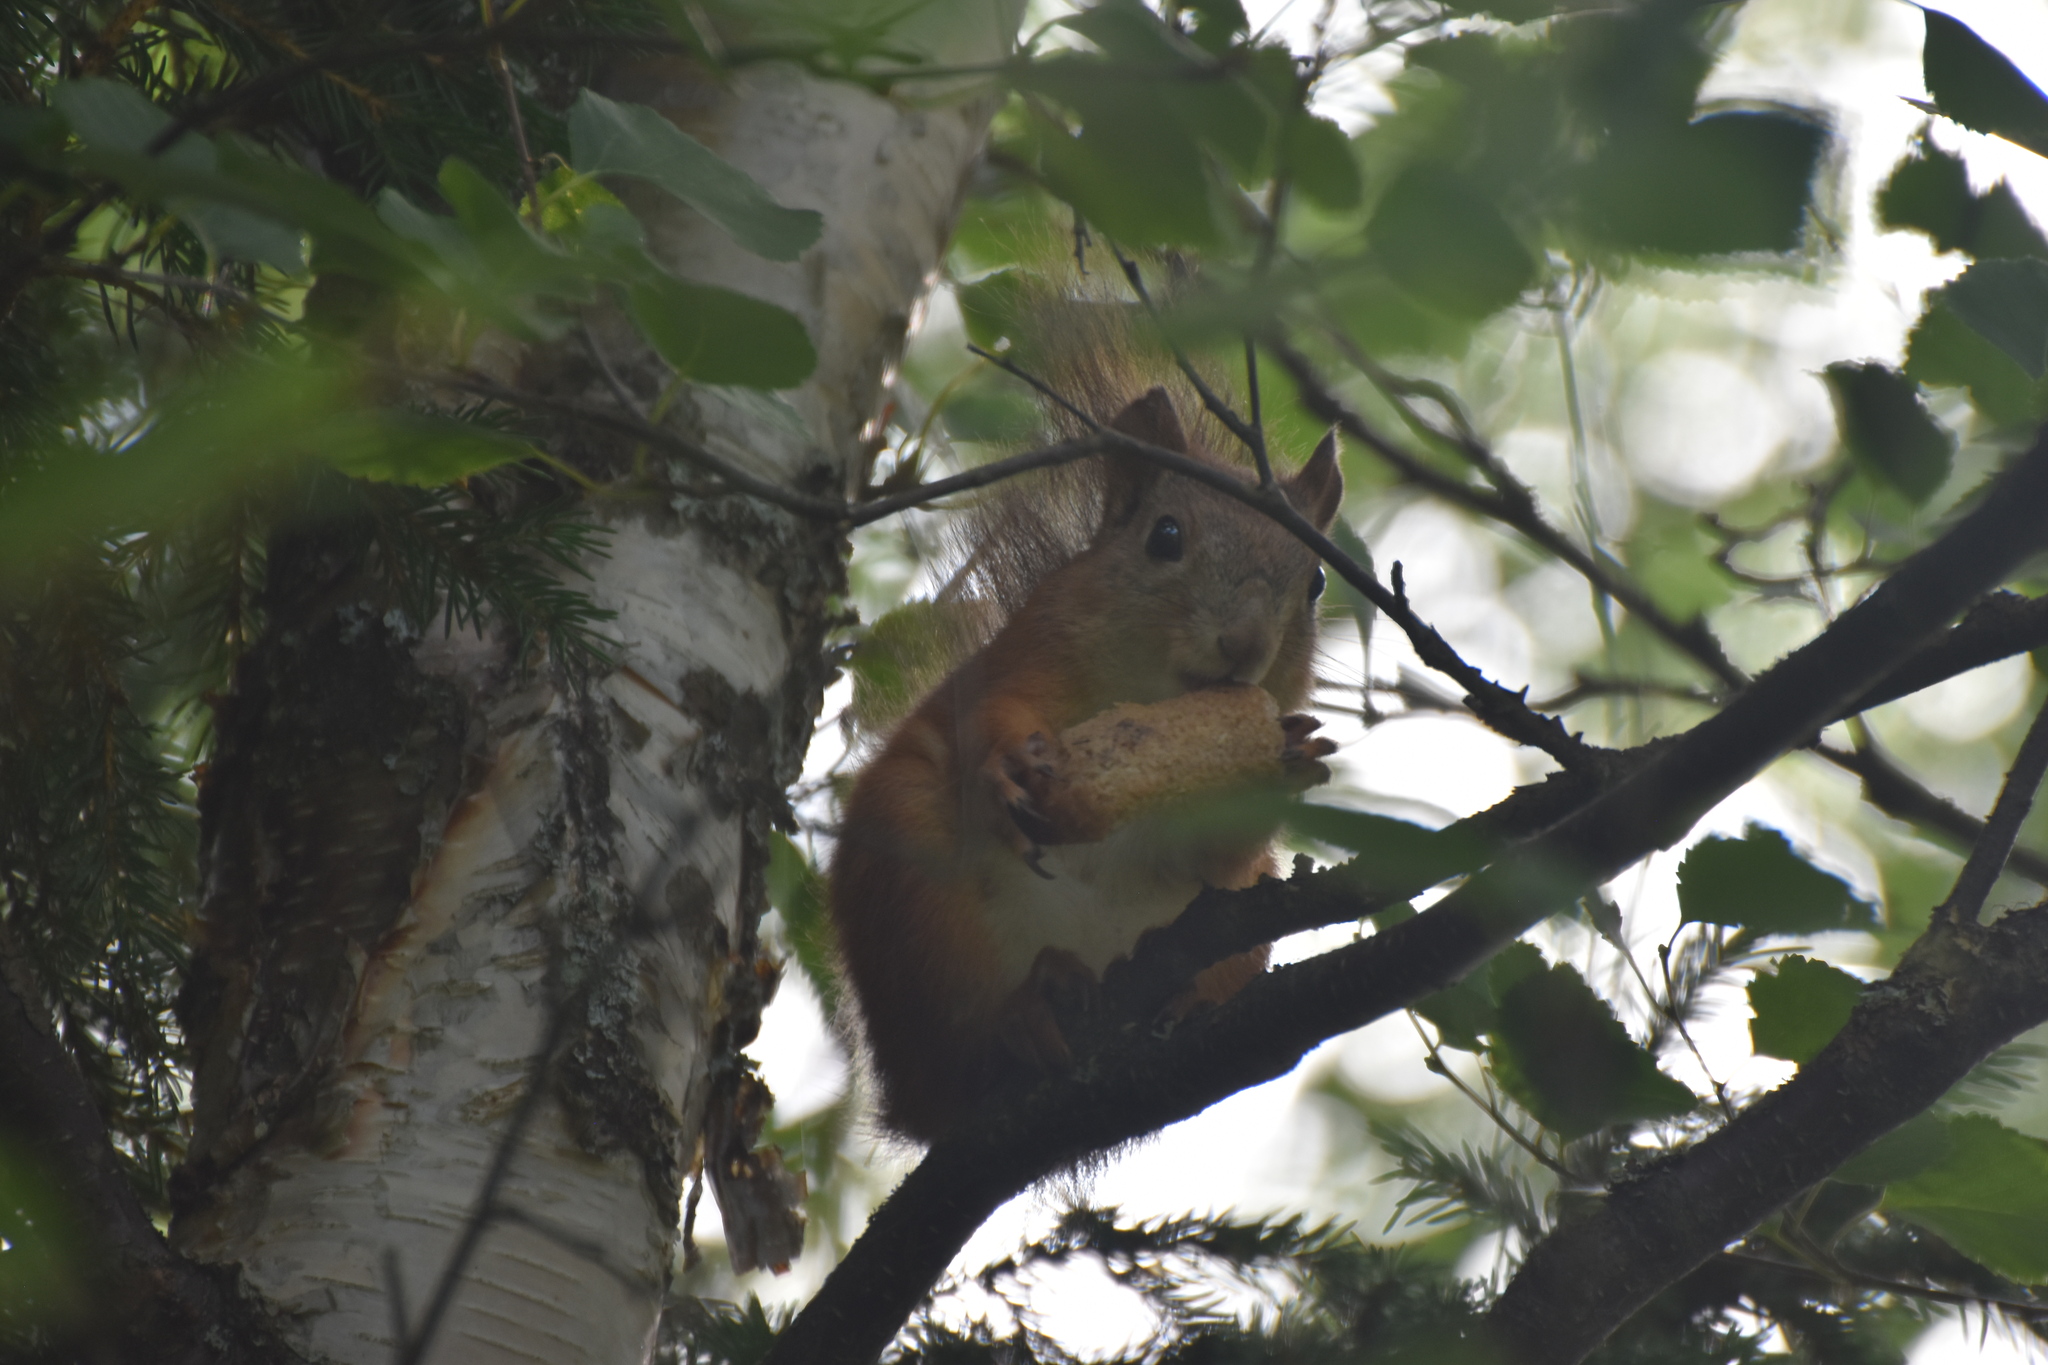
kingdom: Animalia
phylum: Chordata
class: Mammalia
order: Rodentia
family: Sciuridae
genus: Sciurus
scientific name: Sciurus vulgaris
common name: Eurasian red squirrel
